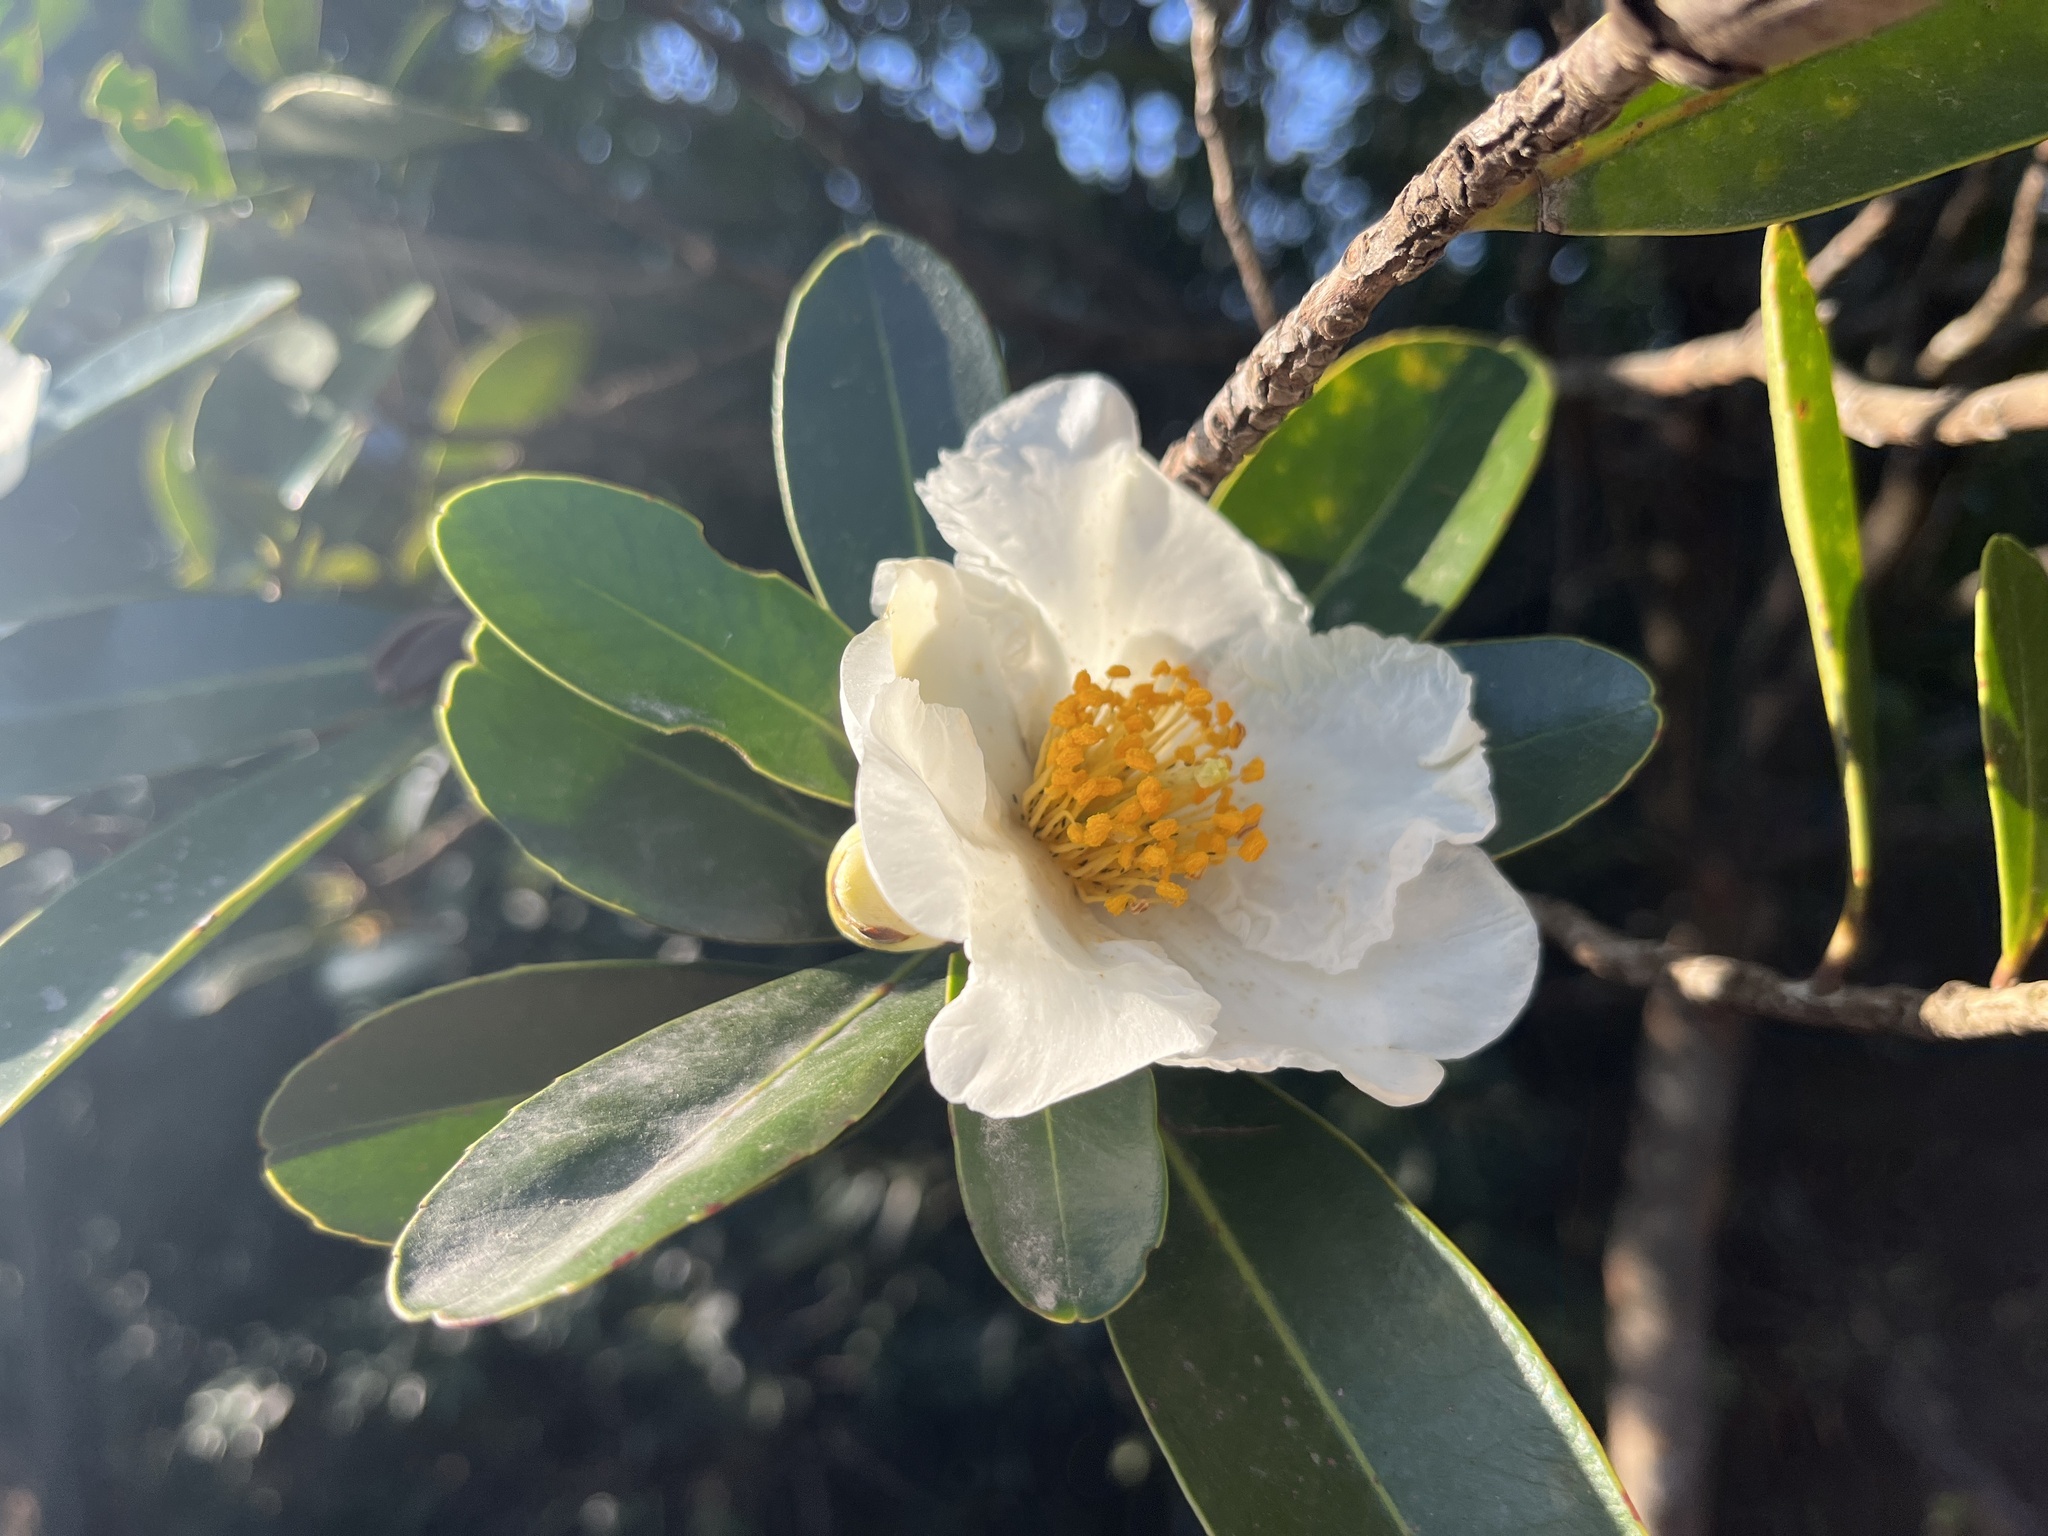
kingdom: Plantae
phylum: Tracheophyta
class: Magnoliopsida
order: Ericales
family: Theaceae
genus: Polyspora
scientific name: Polyspora axillaris
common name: Fried egg tree
